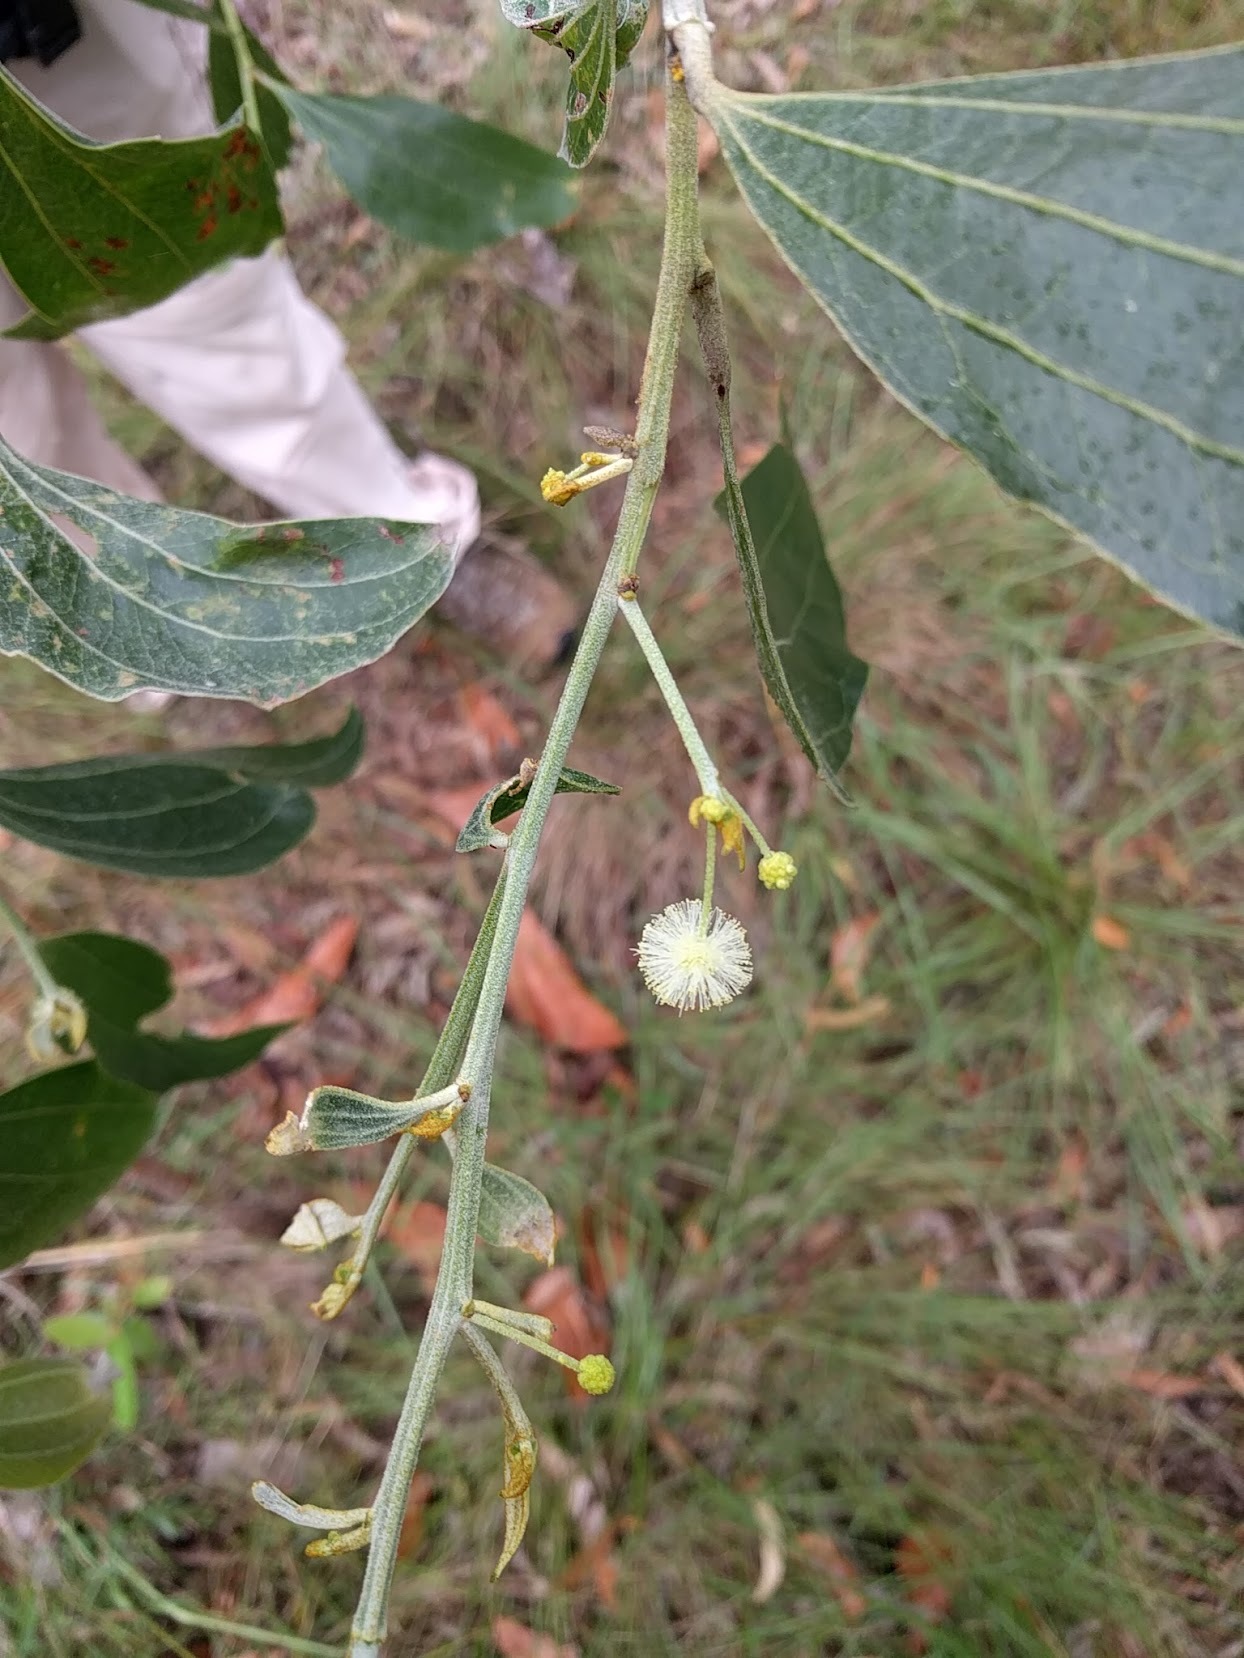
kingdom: Plantae
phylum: Tracheophyta
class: Magnoliopsida
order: Fabales
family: Fabaceae
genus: Acacia
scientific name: Acacia flavescens
